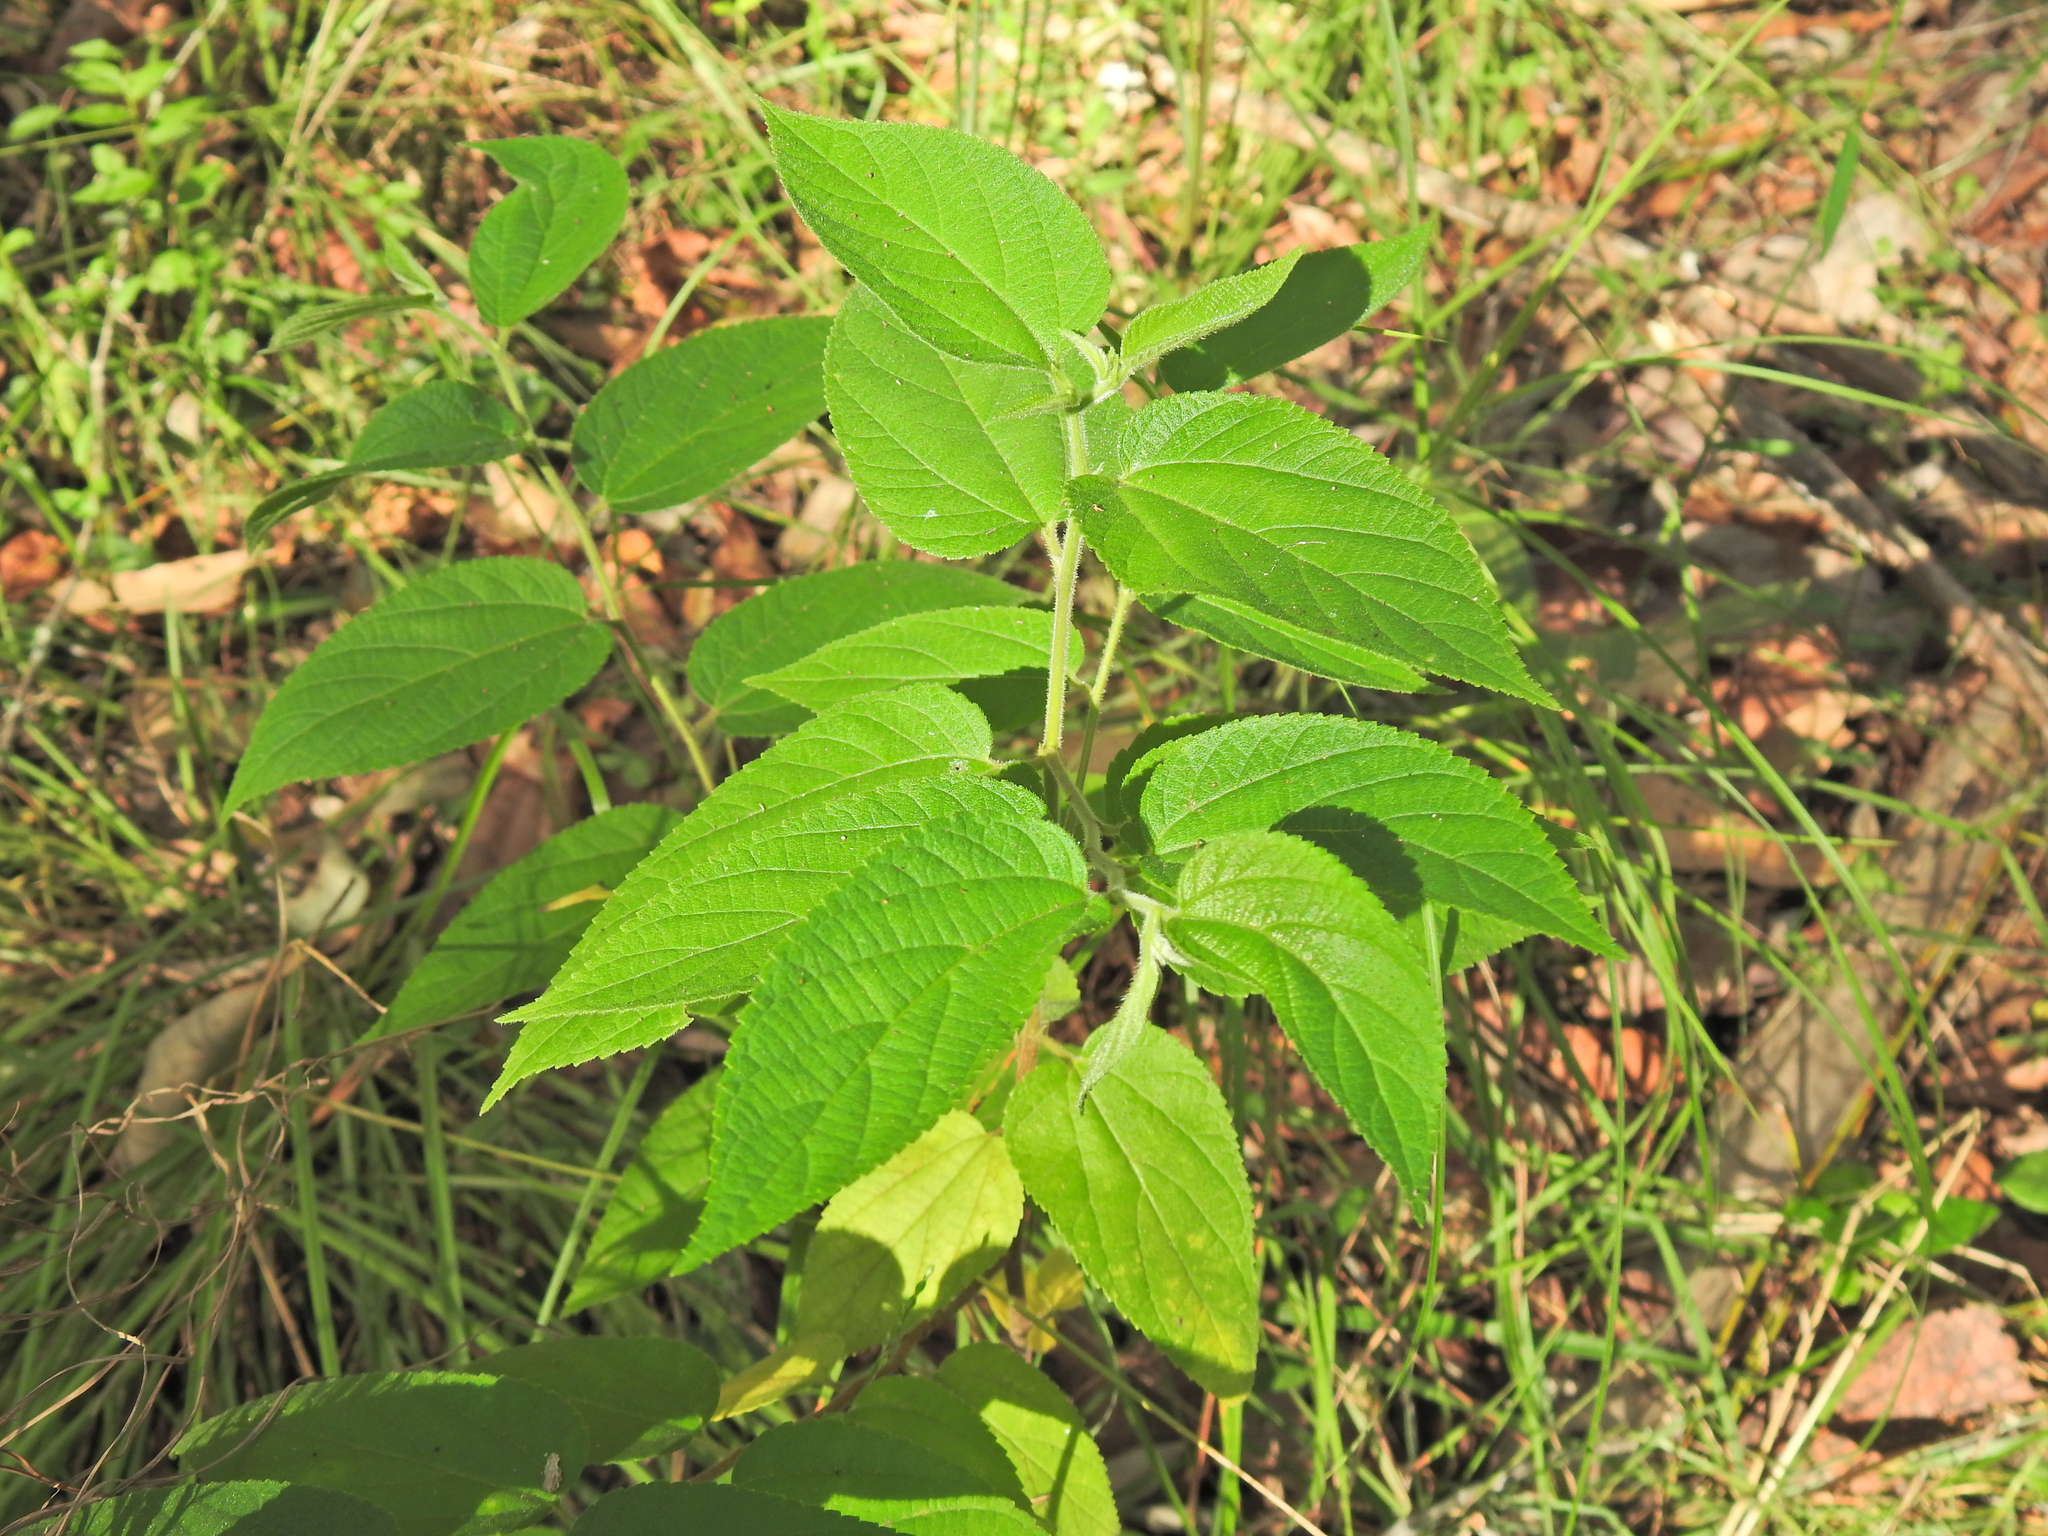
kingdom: Plantae
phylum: Tracheophyta
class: Magnoliopsida
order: Rosales
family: Cannabaceae
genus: Trema
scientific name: Trema tomentosum
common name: Peach-leaf-poisonbush
